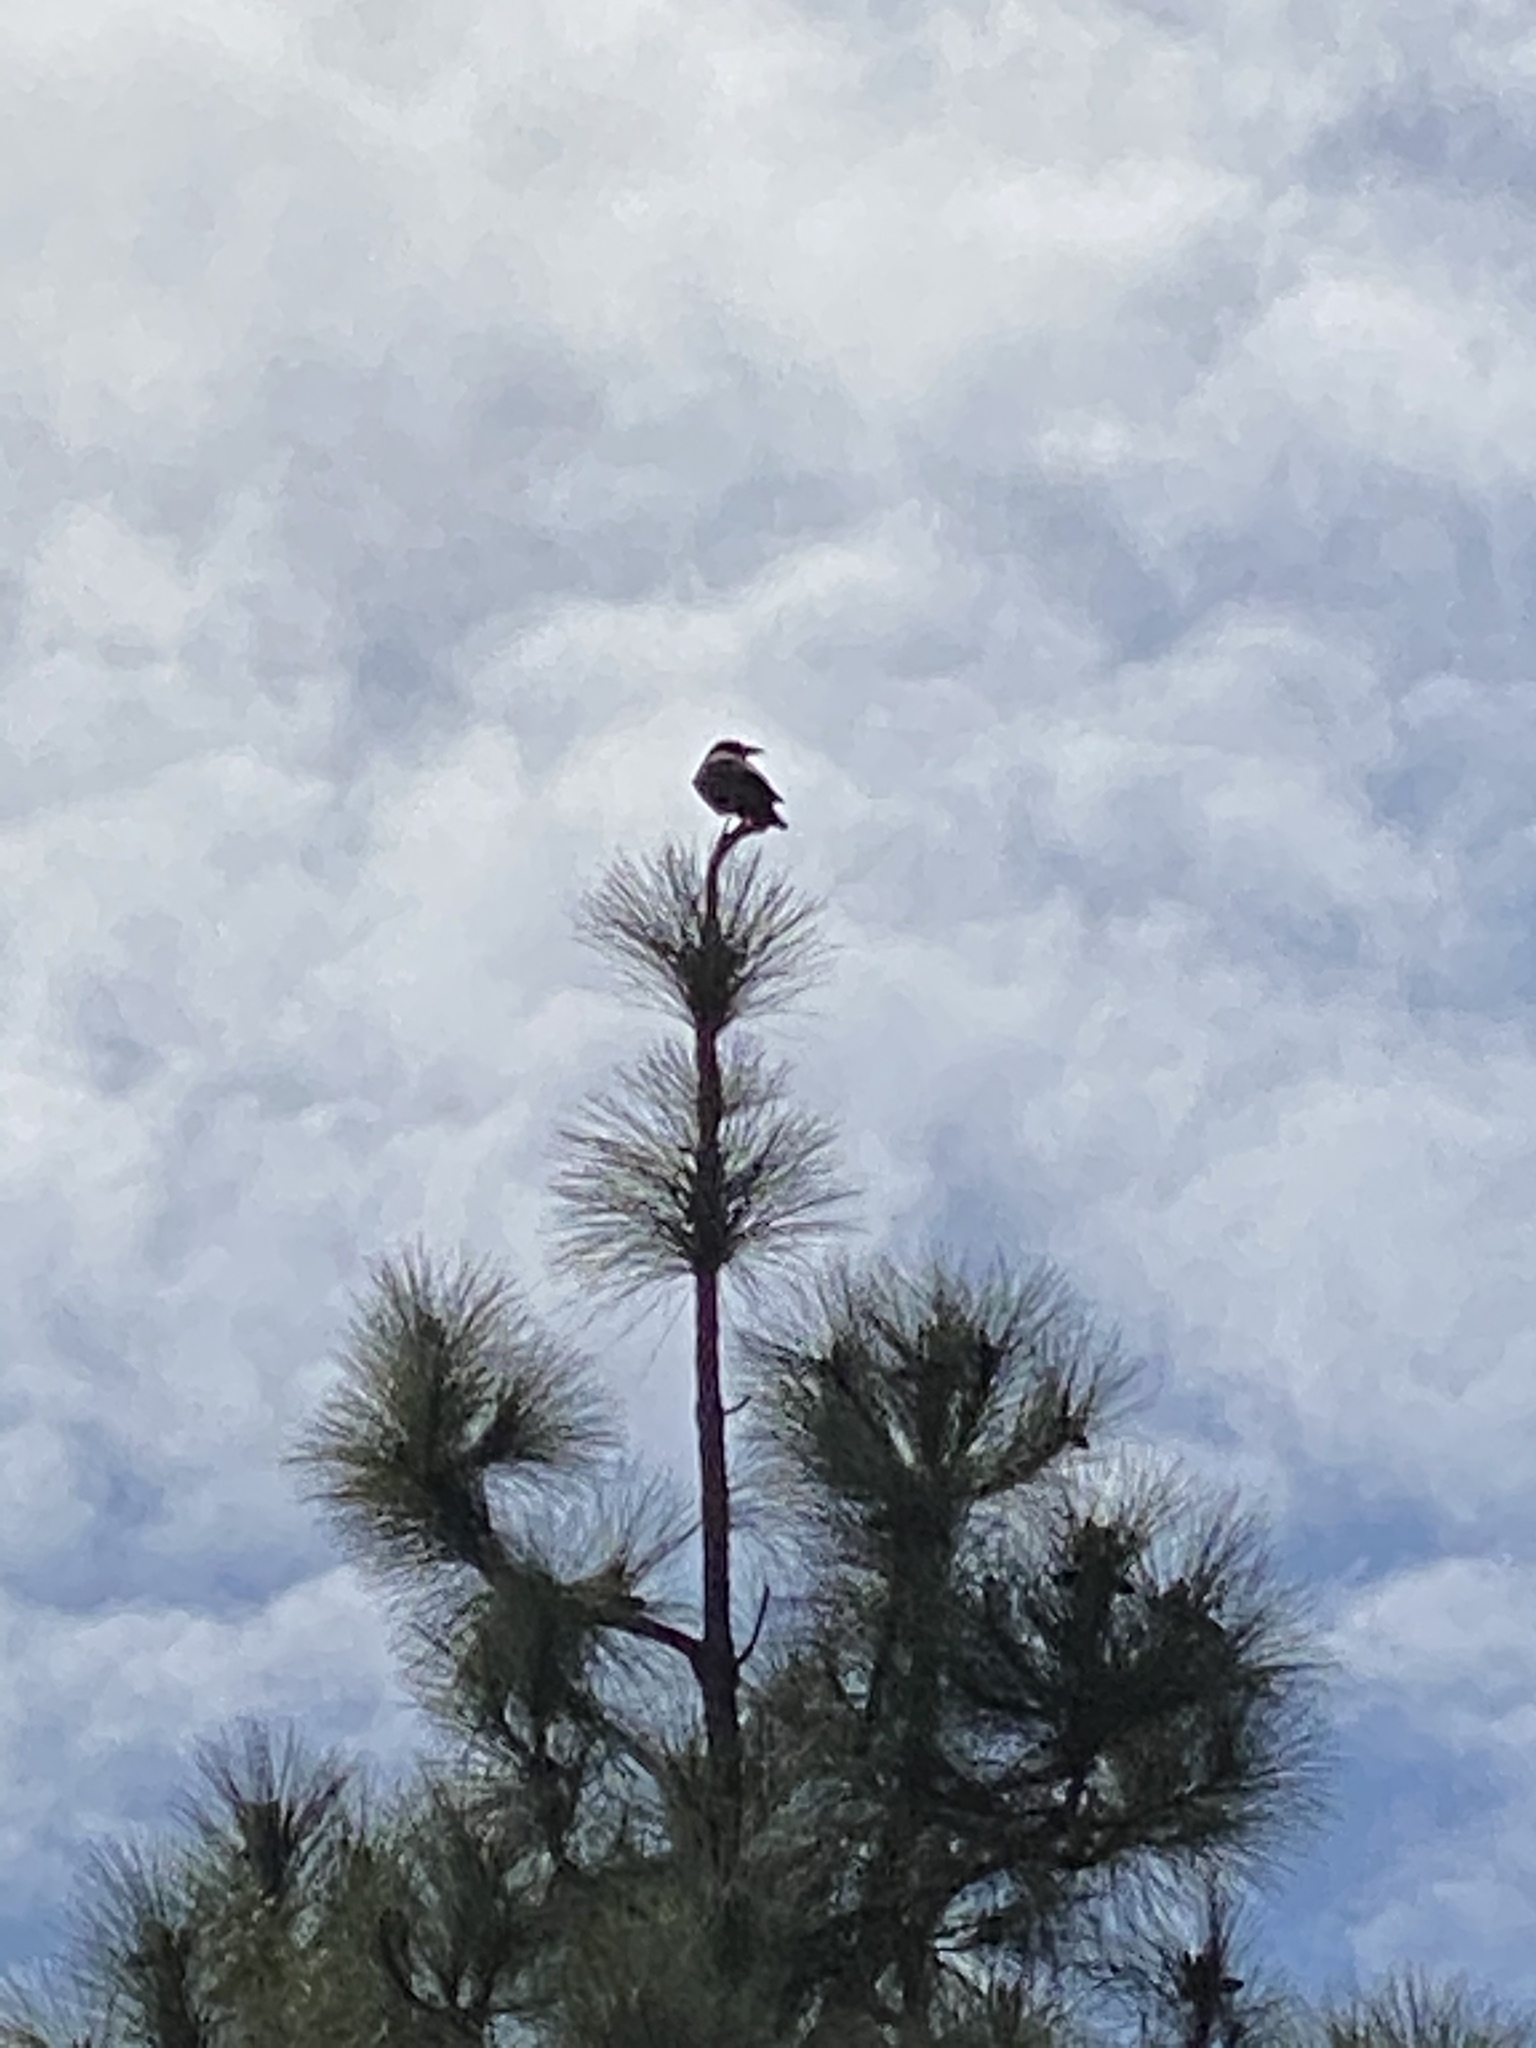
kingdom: Animalia
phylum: Chordata
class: Aves
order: Passeriformes
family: Corvidae
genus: Corvus
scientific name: Corvus brachyrhynchos
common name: American crow
